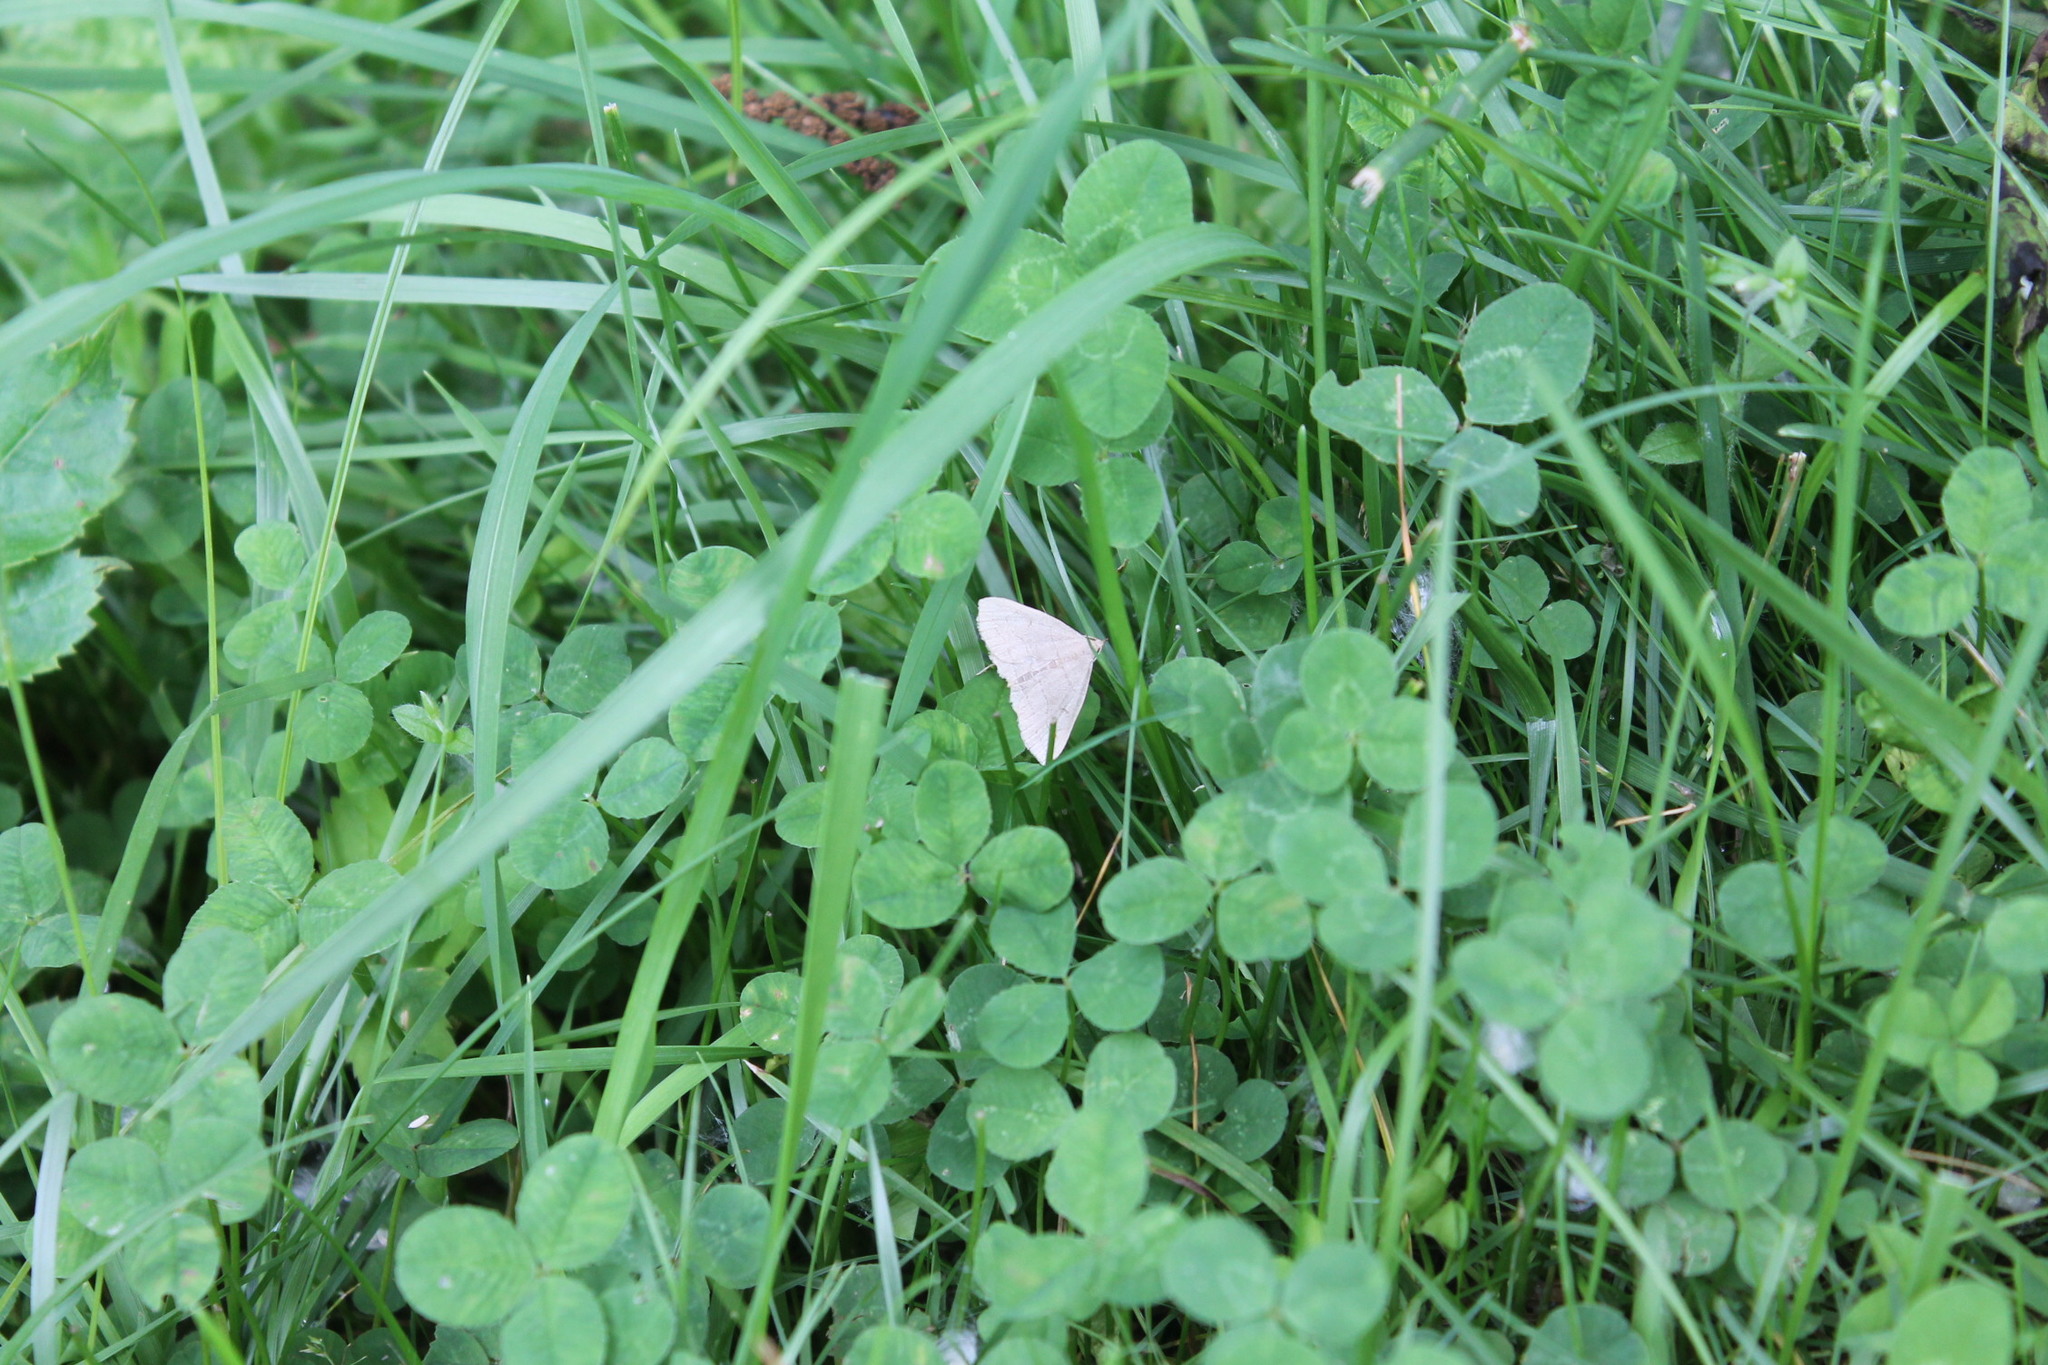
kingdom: Animalia
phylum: Arthropoda
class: Insecta
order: Lepidoptera
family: Erebidae
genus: Zanclognatha
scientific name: Zanclognatha pedipilalis
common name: Grayish fan-foot
